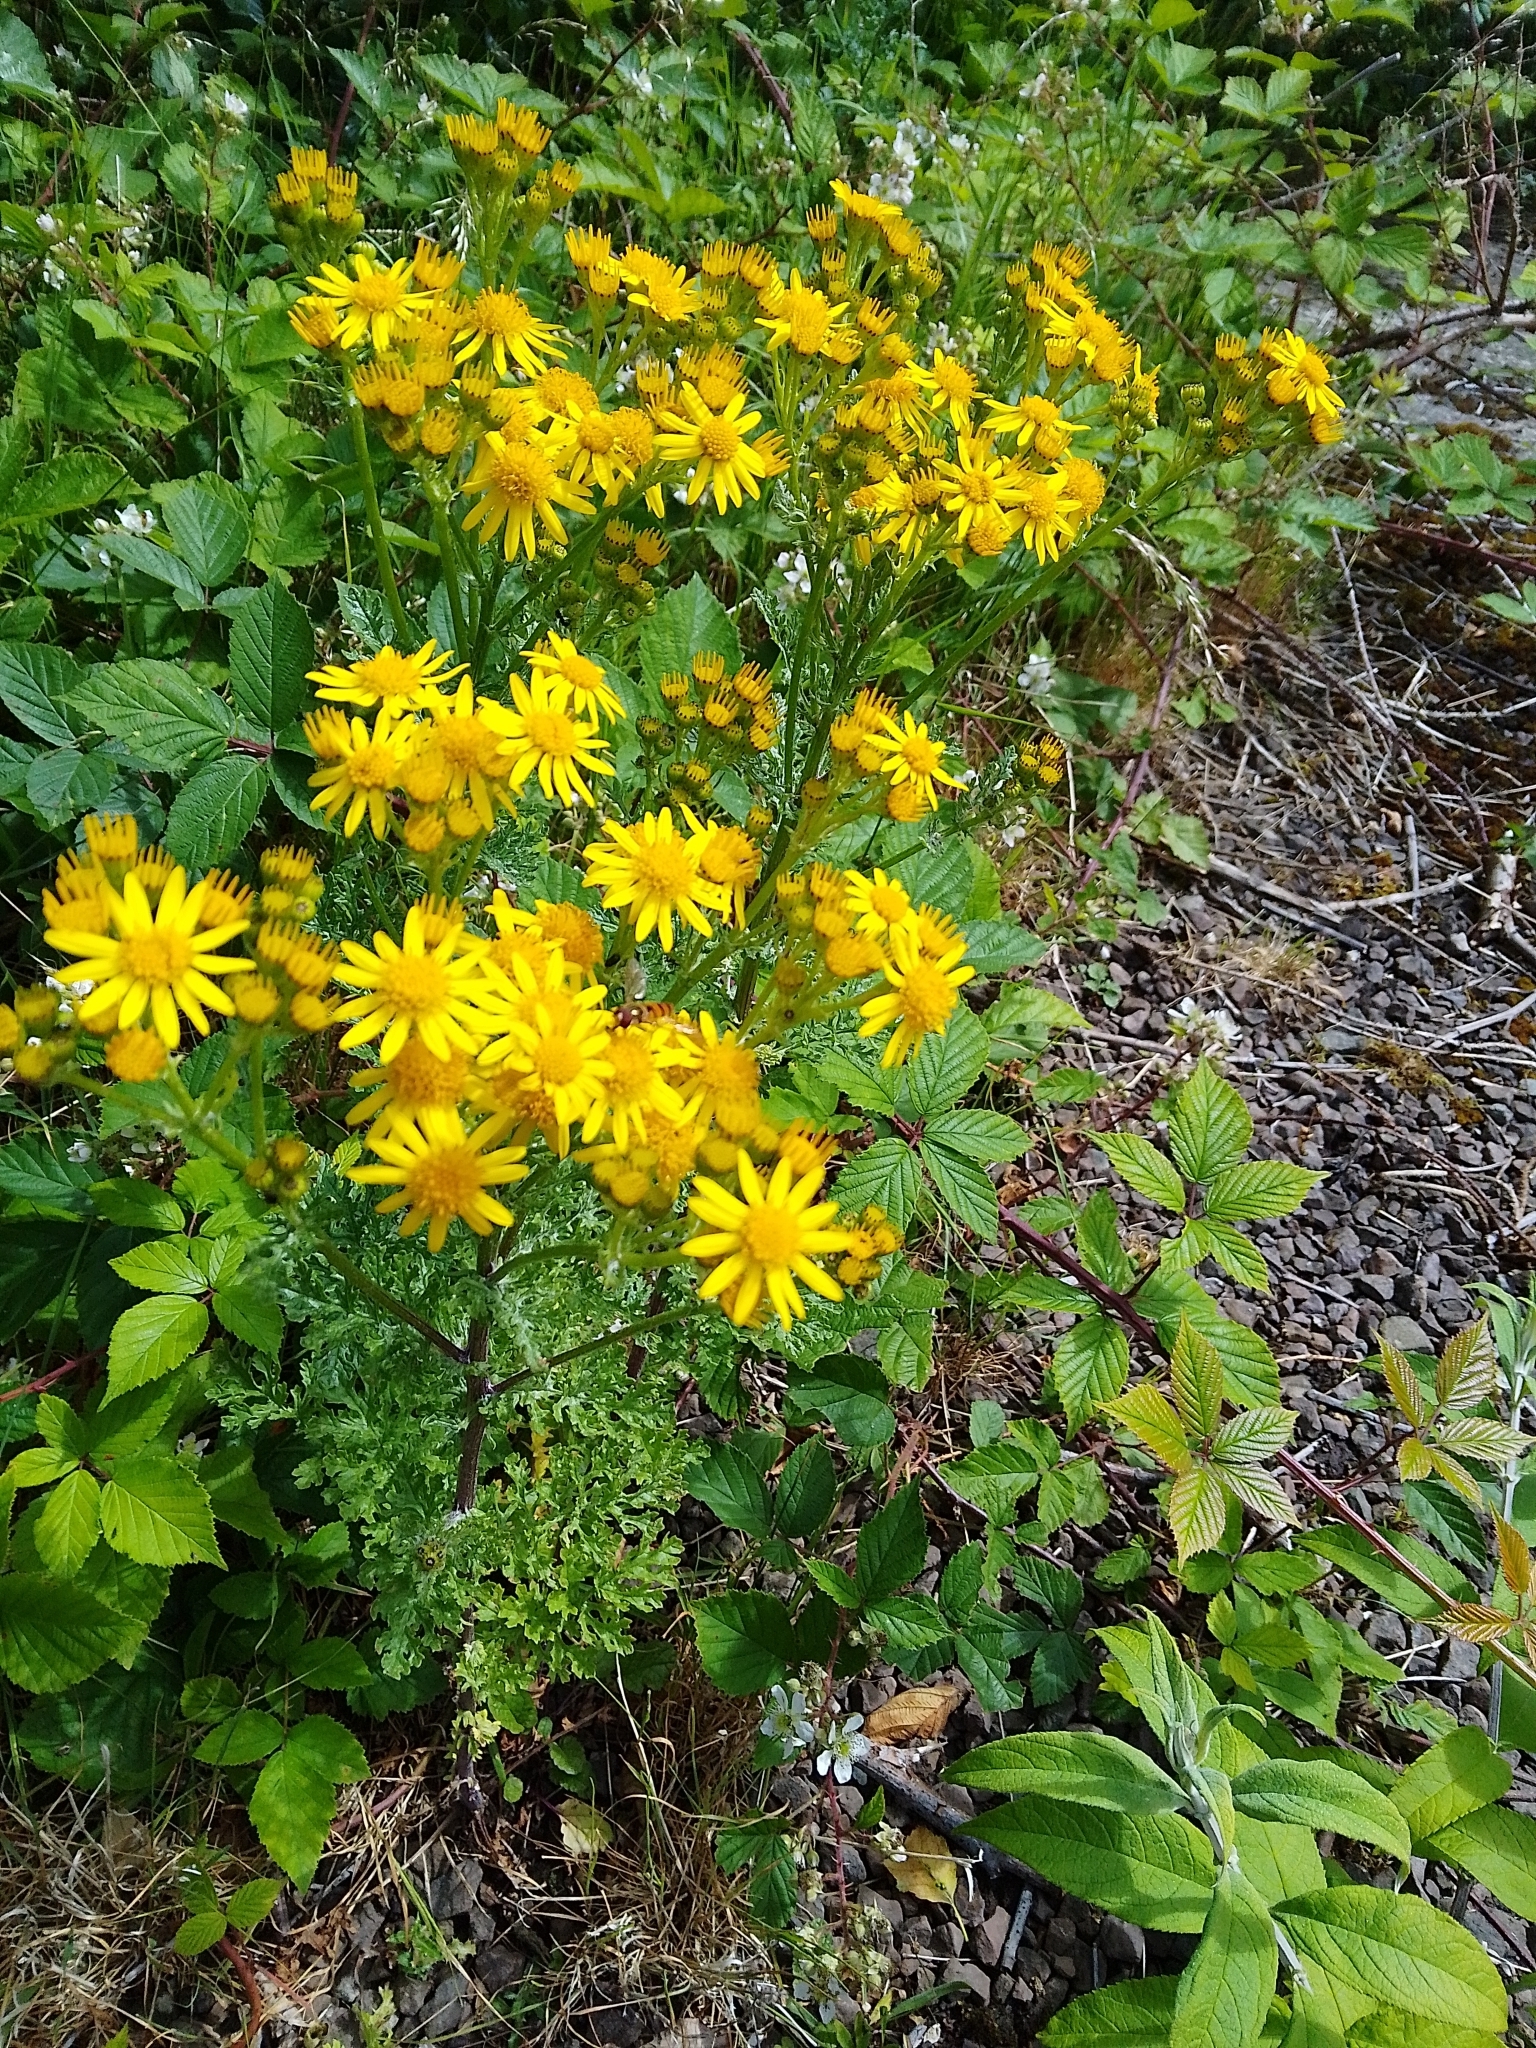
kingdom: Plantae
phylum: Tracheophyta
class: Magnoliopsida
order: Asterales
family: Asteraceae
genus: Jacobaea
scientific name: Jacobaea vulgaris
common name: Stinking willie
